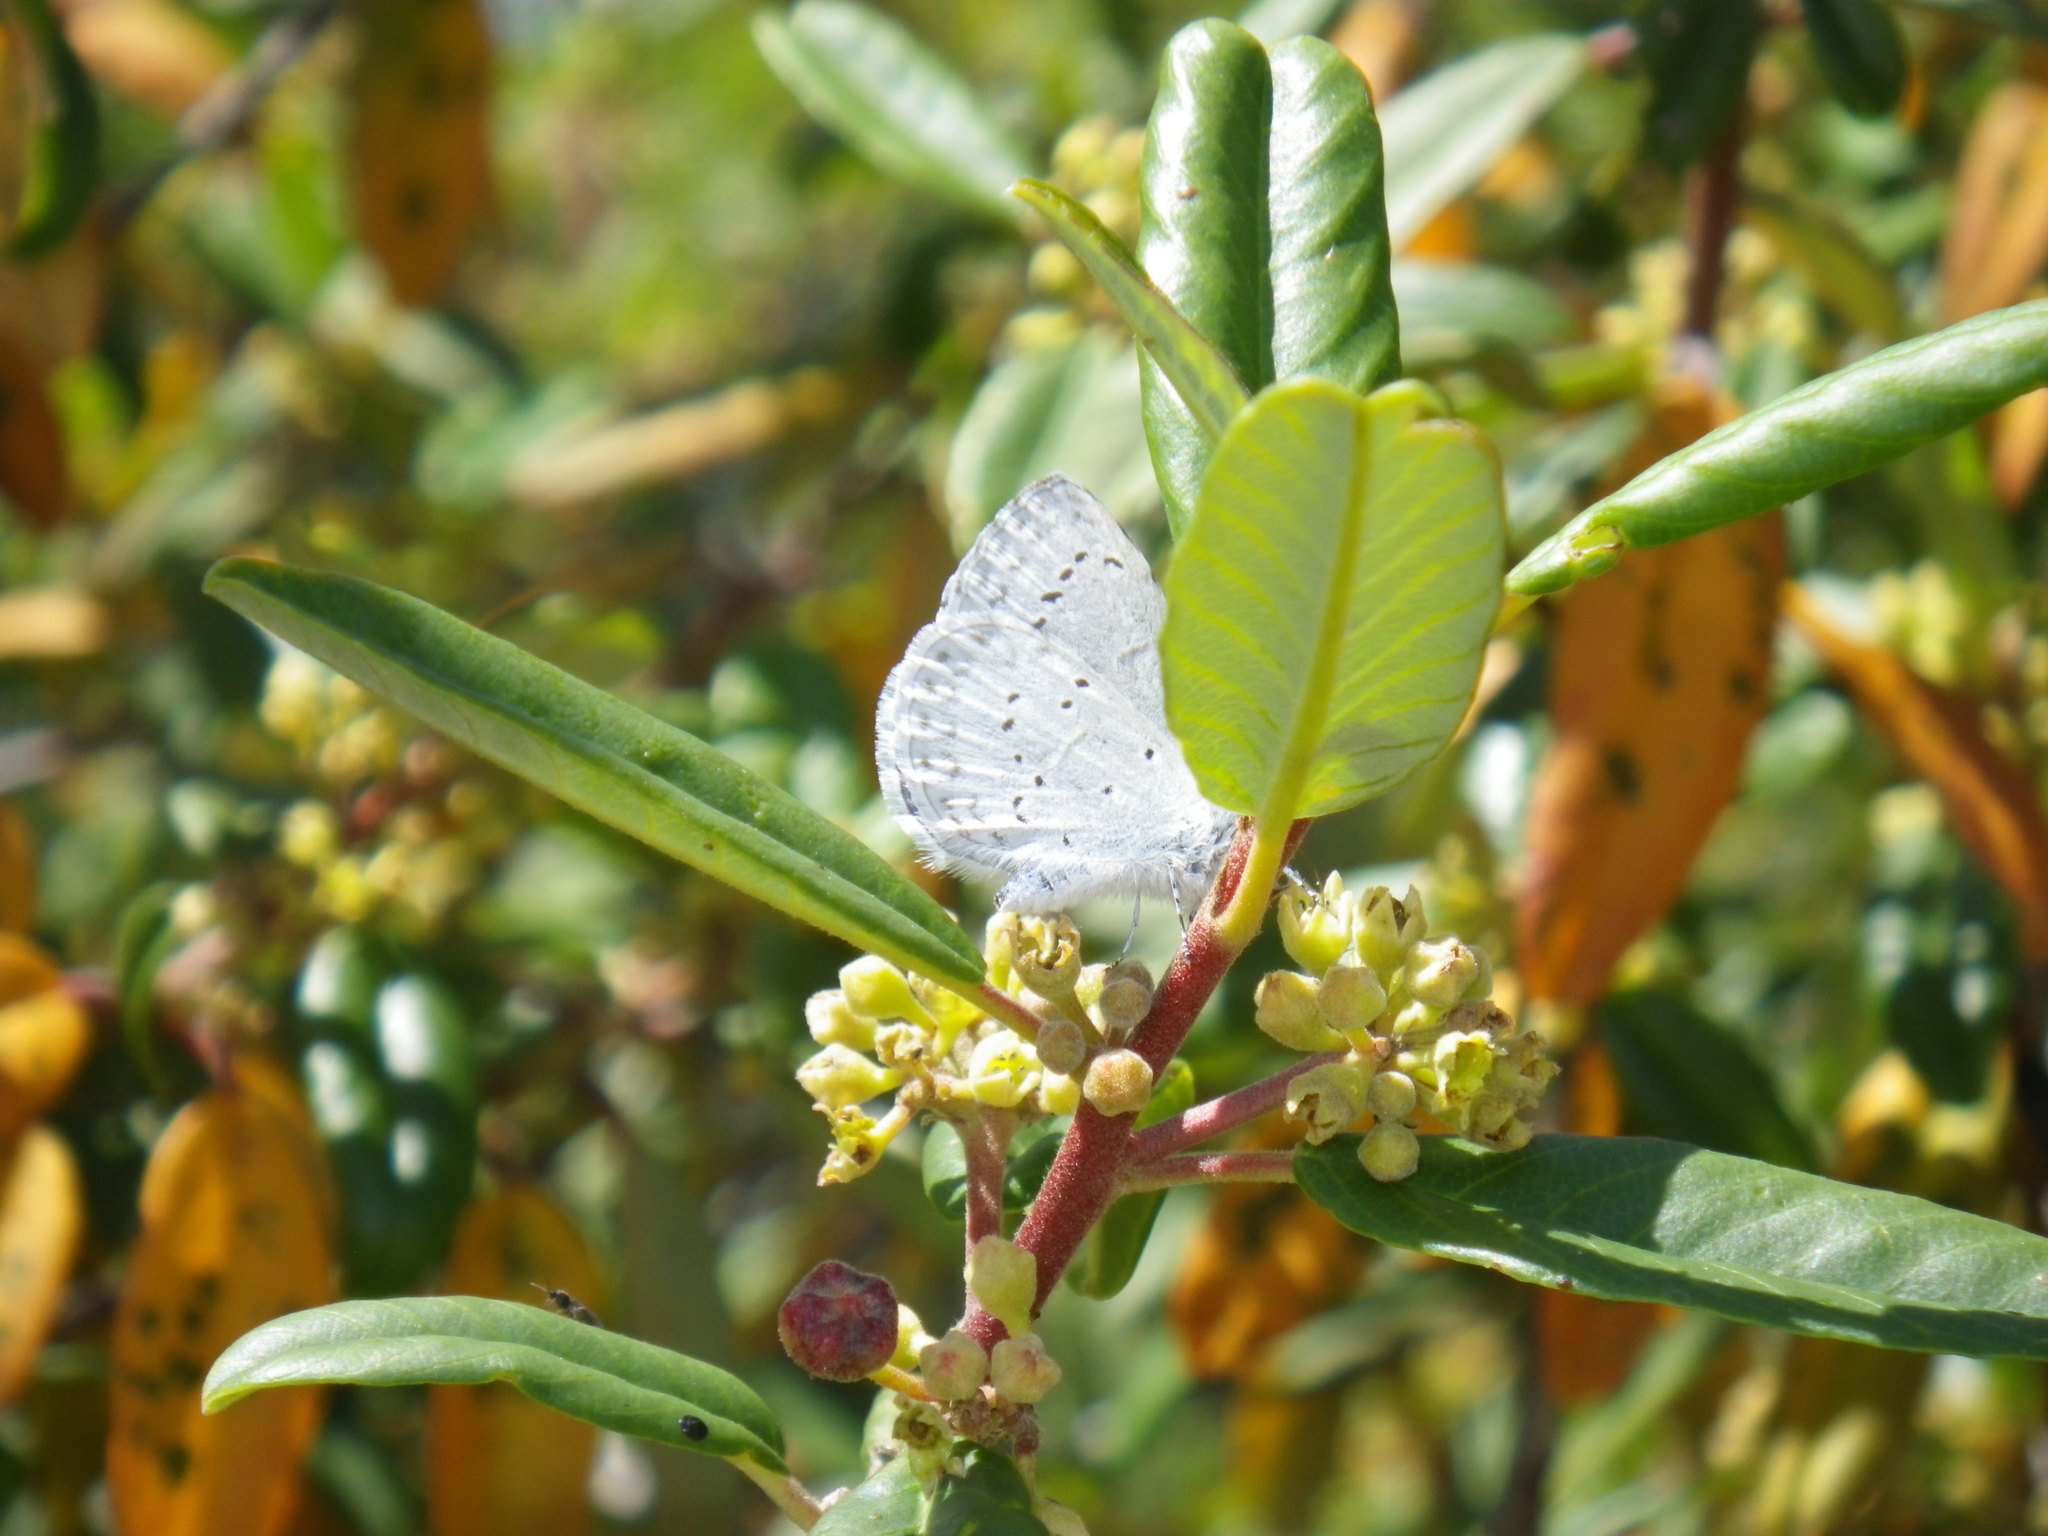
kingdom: Animalia
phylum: Arthropoda
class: Insecta
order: Lepidoptera
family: Lycaenidae
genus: Celastrina
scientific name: Celastrina ladon
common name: Spring azure
